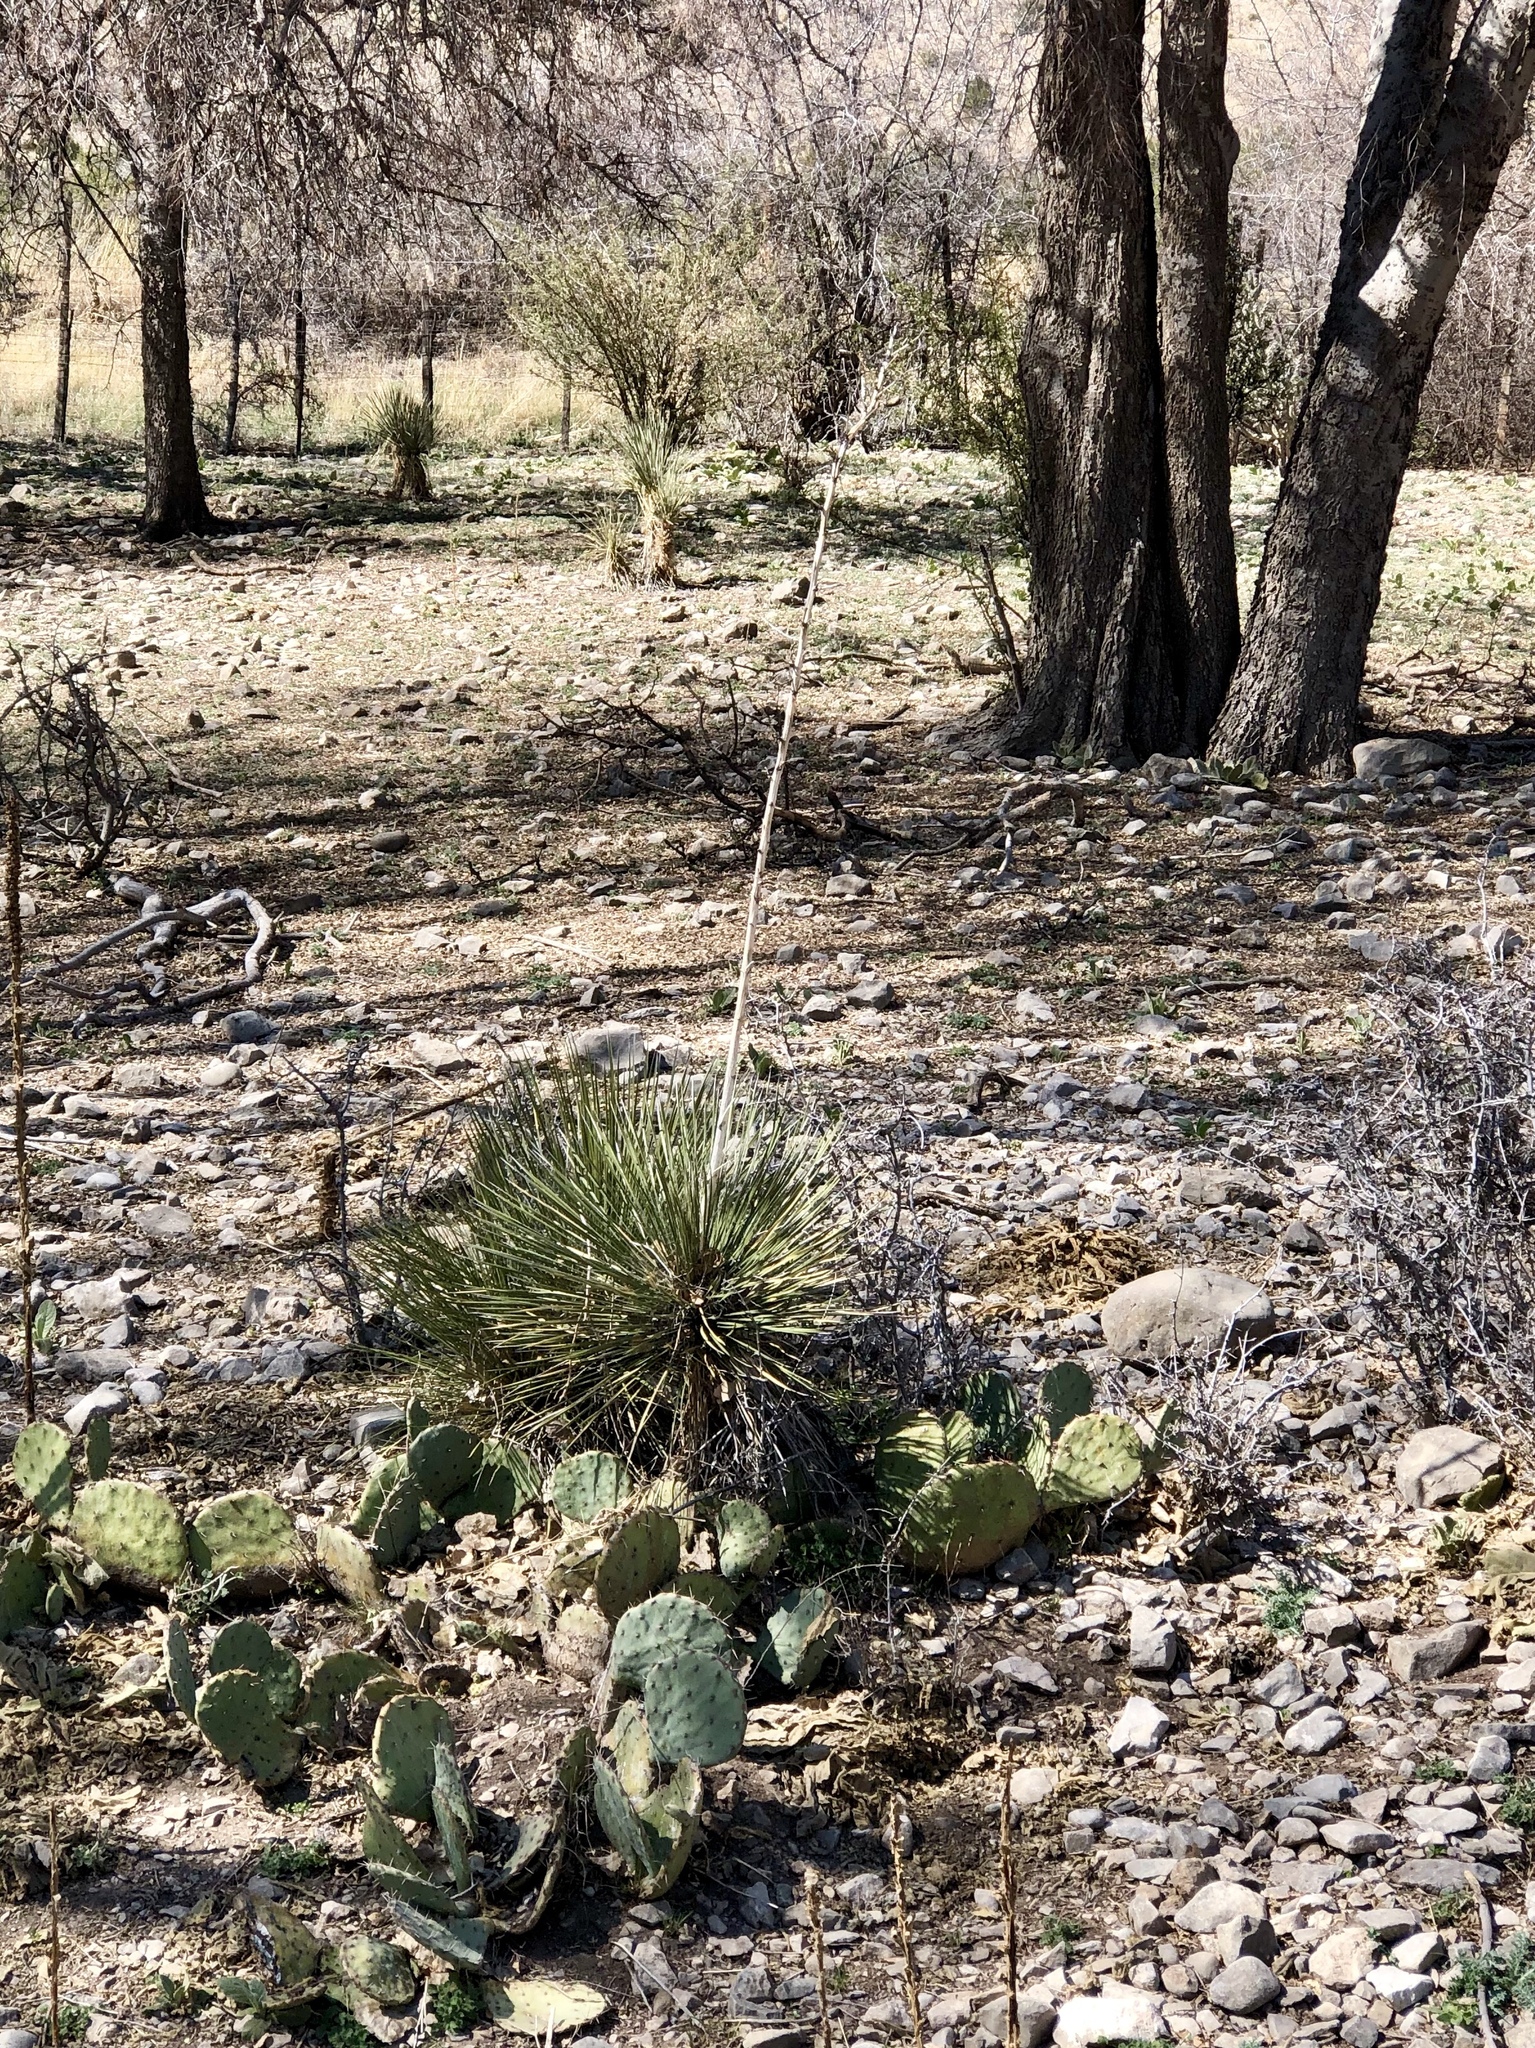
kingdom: Plantae
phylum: Tracheophyta
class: Liliopsida
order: Asparagales
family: Asparagaceae
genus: Yucca
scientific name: Yucca elata
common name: Palmella
